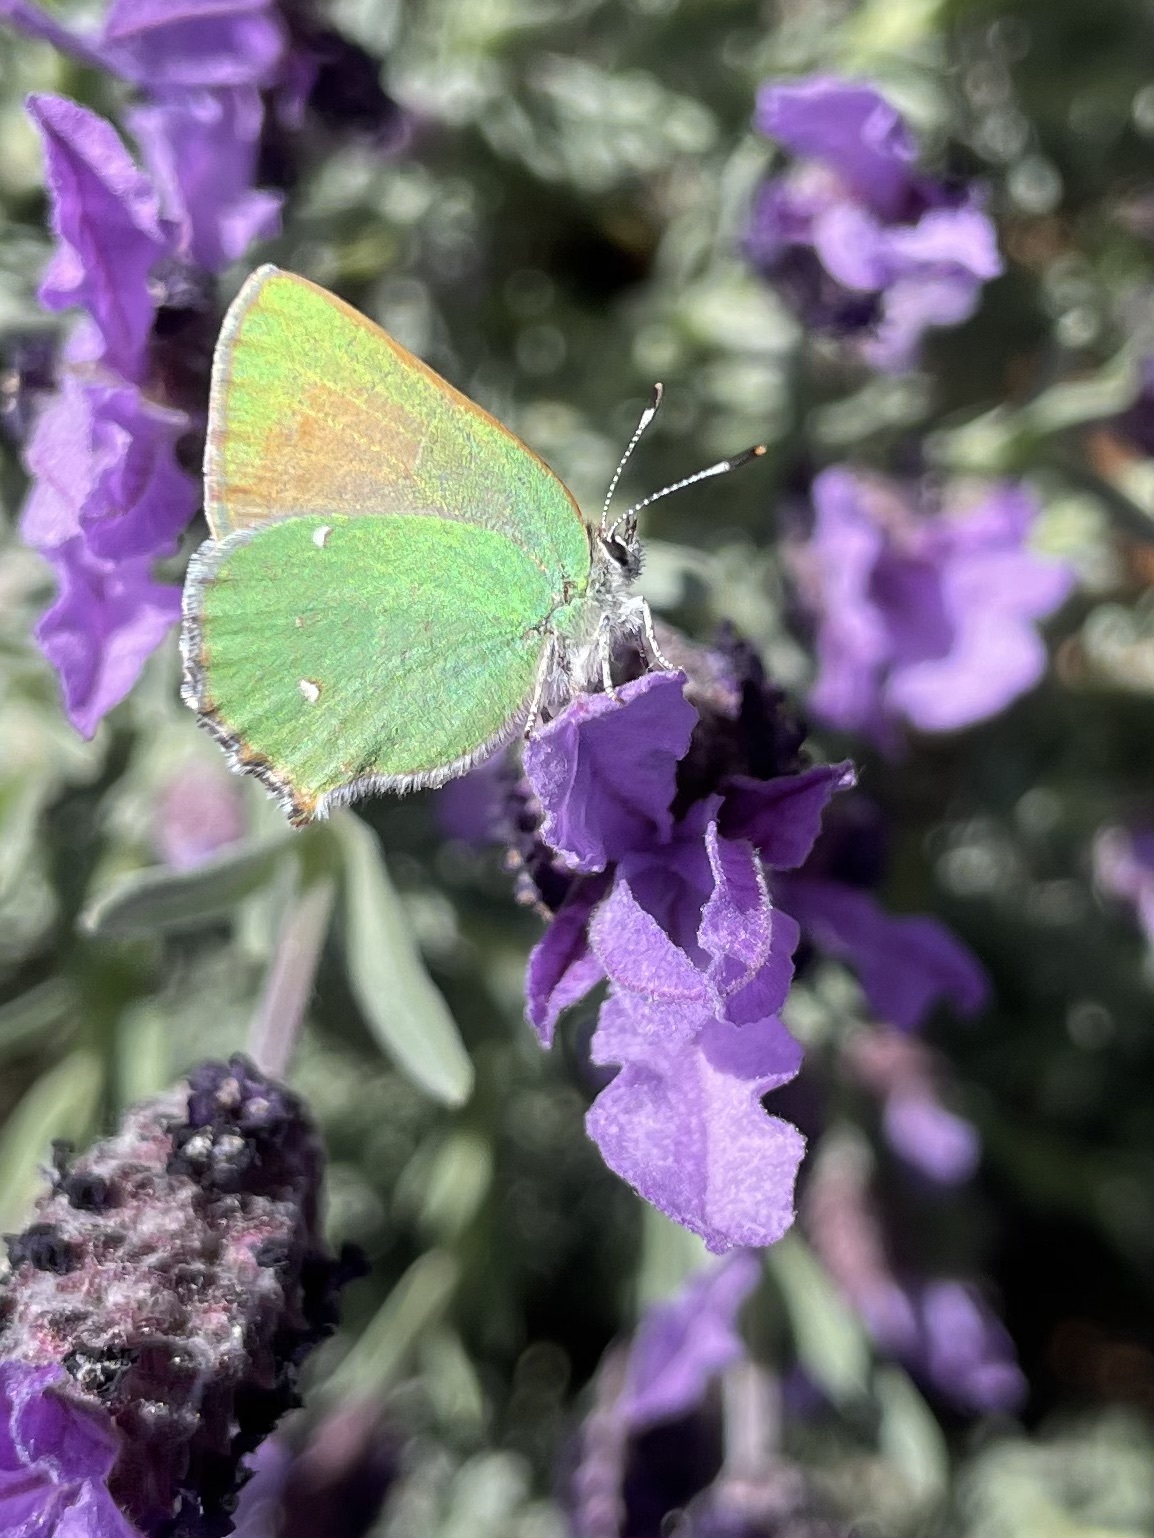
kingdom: Animalia
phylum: Arthropoda
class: Insecta
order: Lepidoptera
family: Lycaenidae
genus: Callophrys
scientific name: Callophrys dumetorum
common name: Bramble hairstreak
